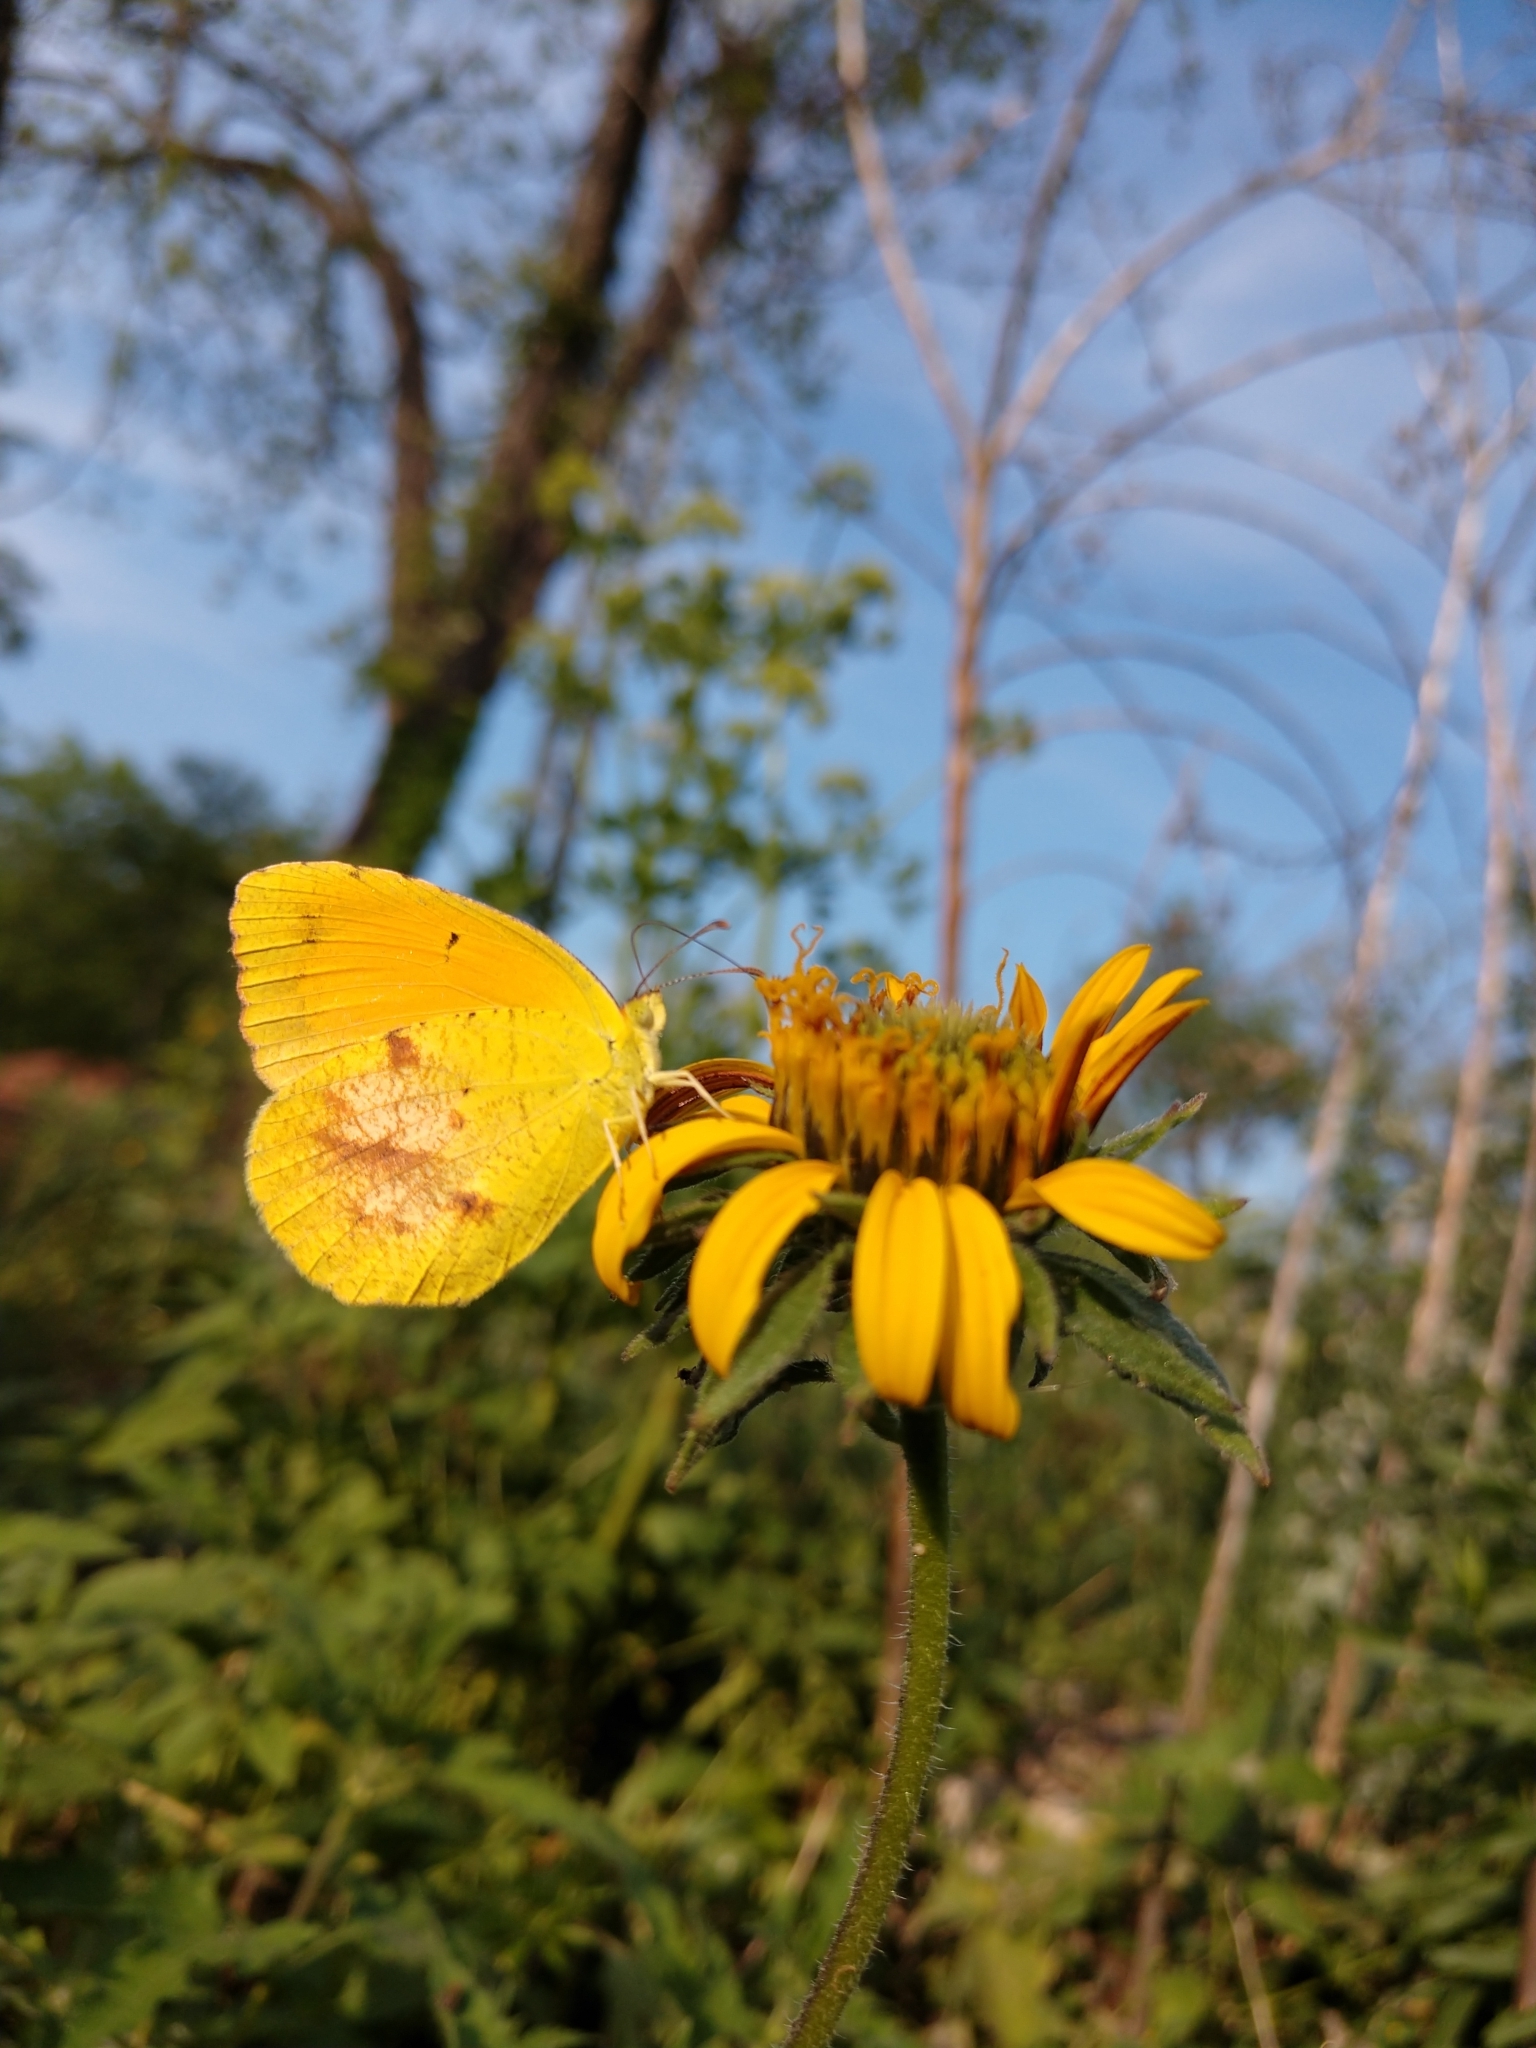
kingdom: Animalia
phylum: Arthropoda
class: Insecta
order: Lepidoptera
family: Pieridae
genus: Abaeis
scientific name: Abaeis nicippe
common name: Sleepy orange
